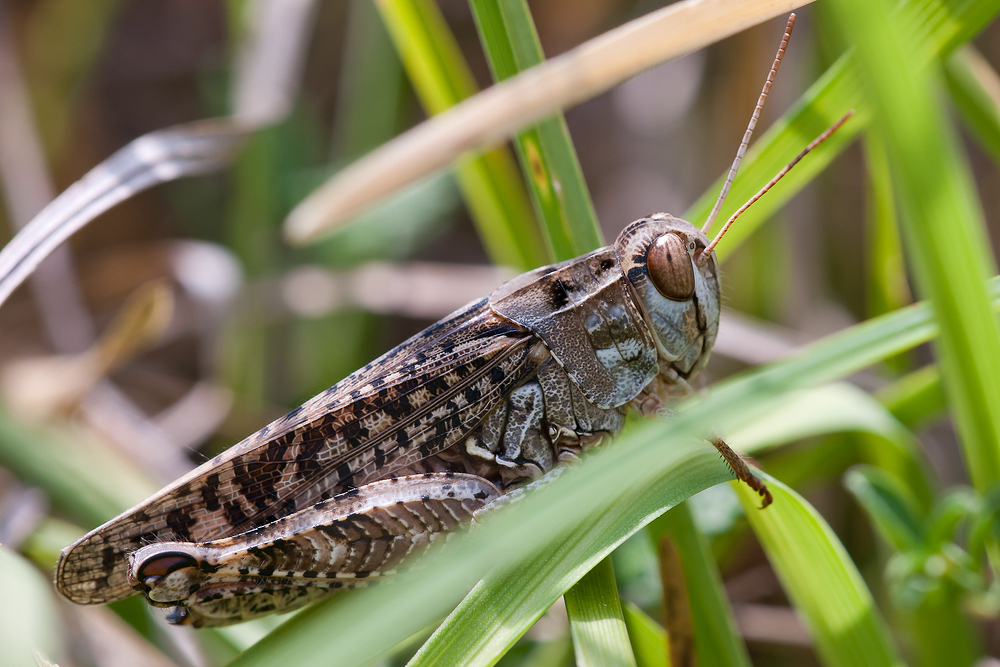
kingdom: Animalia
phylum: Arthropoda
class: Insecta
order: Orthoptera
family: Acrididae
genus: Calliptamus
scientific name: Calliptamus italicus
